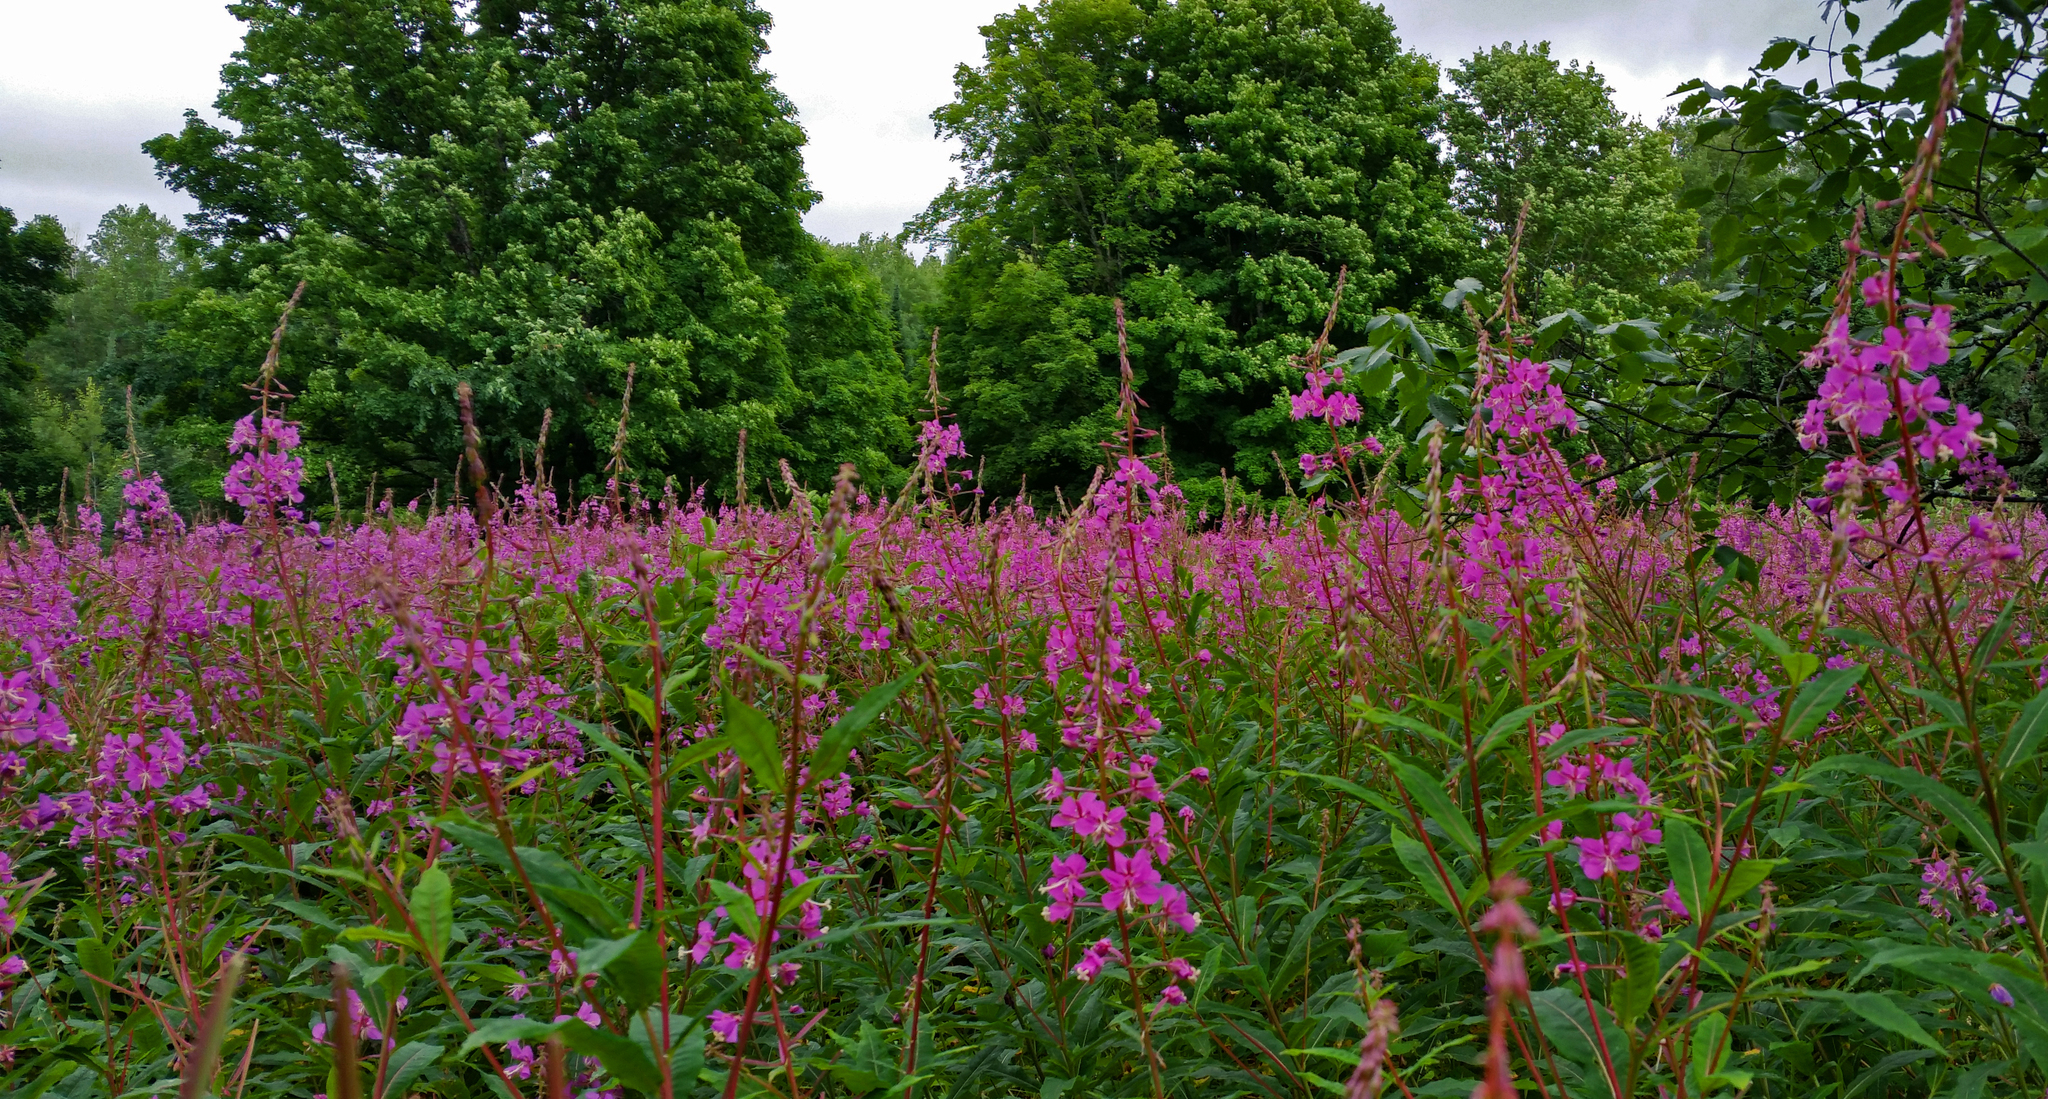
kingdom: Plantae
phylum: Tracheophyta
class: Magnoliopsida
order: Myrtales
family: Onagraceae
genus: Chamaenerion
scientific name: Chamaenerion angustifolium
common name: Fireweed
